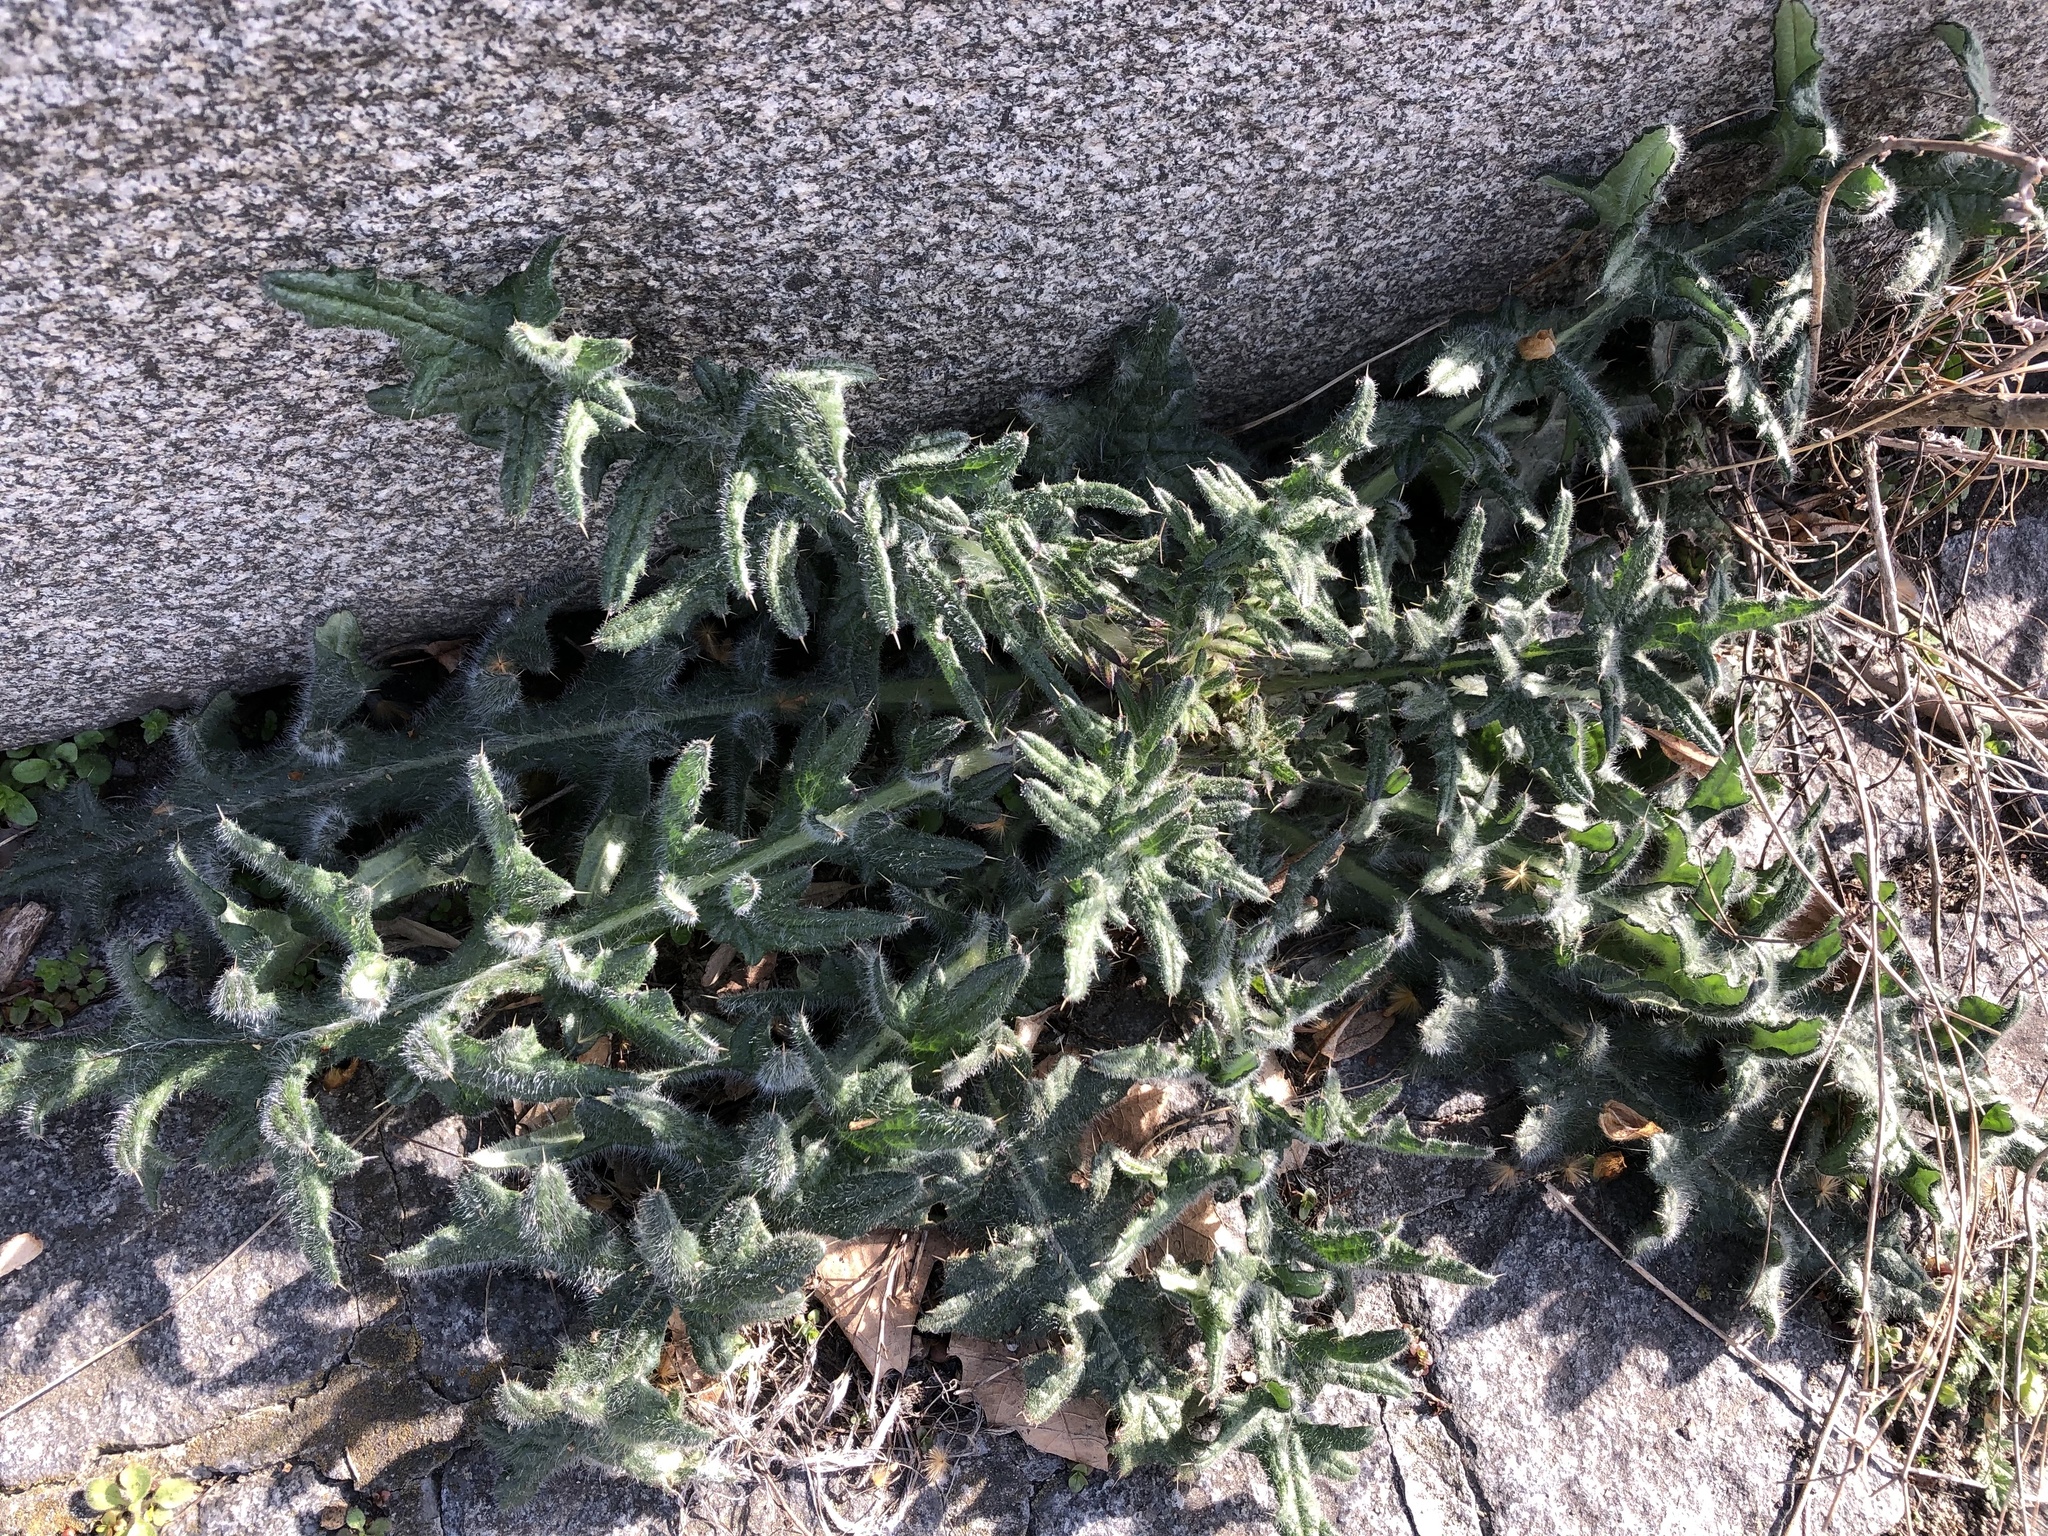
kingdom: Plantae
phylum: Tracheophyta
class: Magnoliopsida
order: Asterales
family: Asteraceae
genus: Cirsium
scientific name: Cirsium vulgare
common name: Bull thistle
